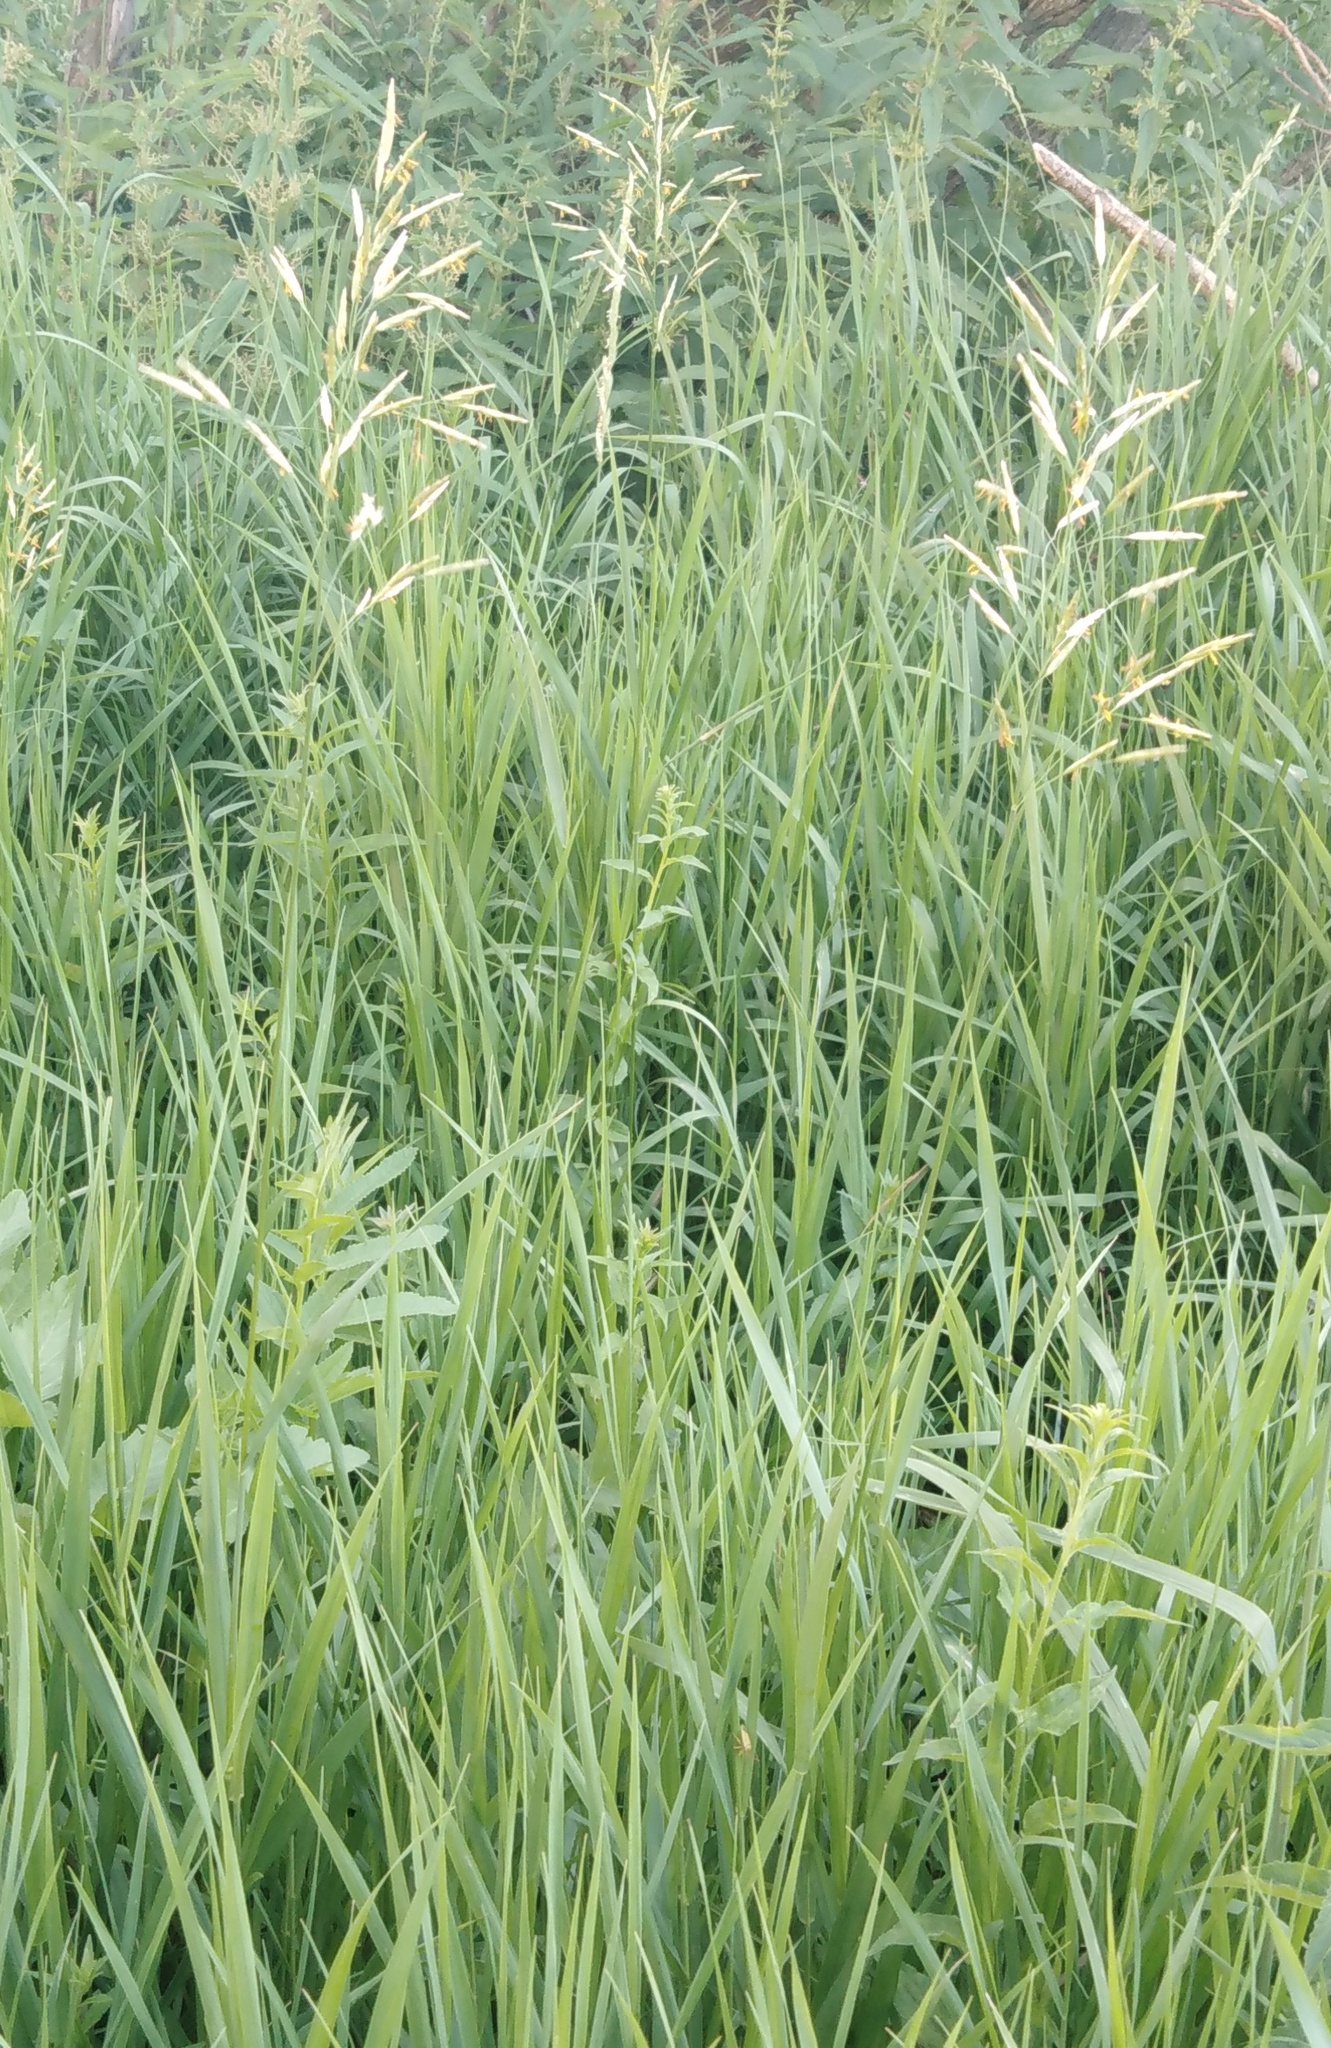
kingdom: Plantae
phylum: Tracheophyta
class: Liliopsida
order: Poales
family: Poaceae
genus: Bromus
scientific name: Bromus inermis
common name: Smooth brome
